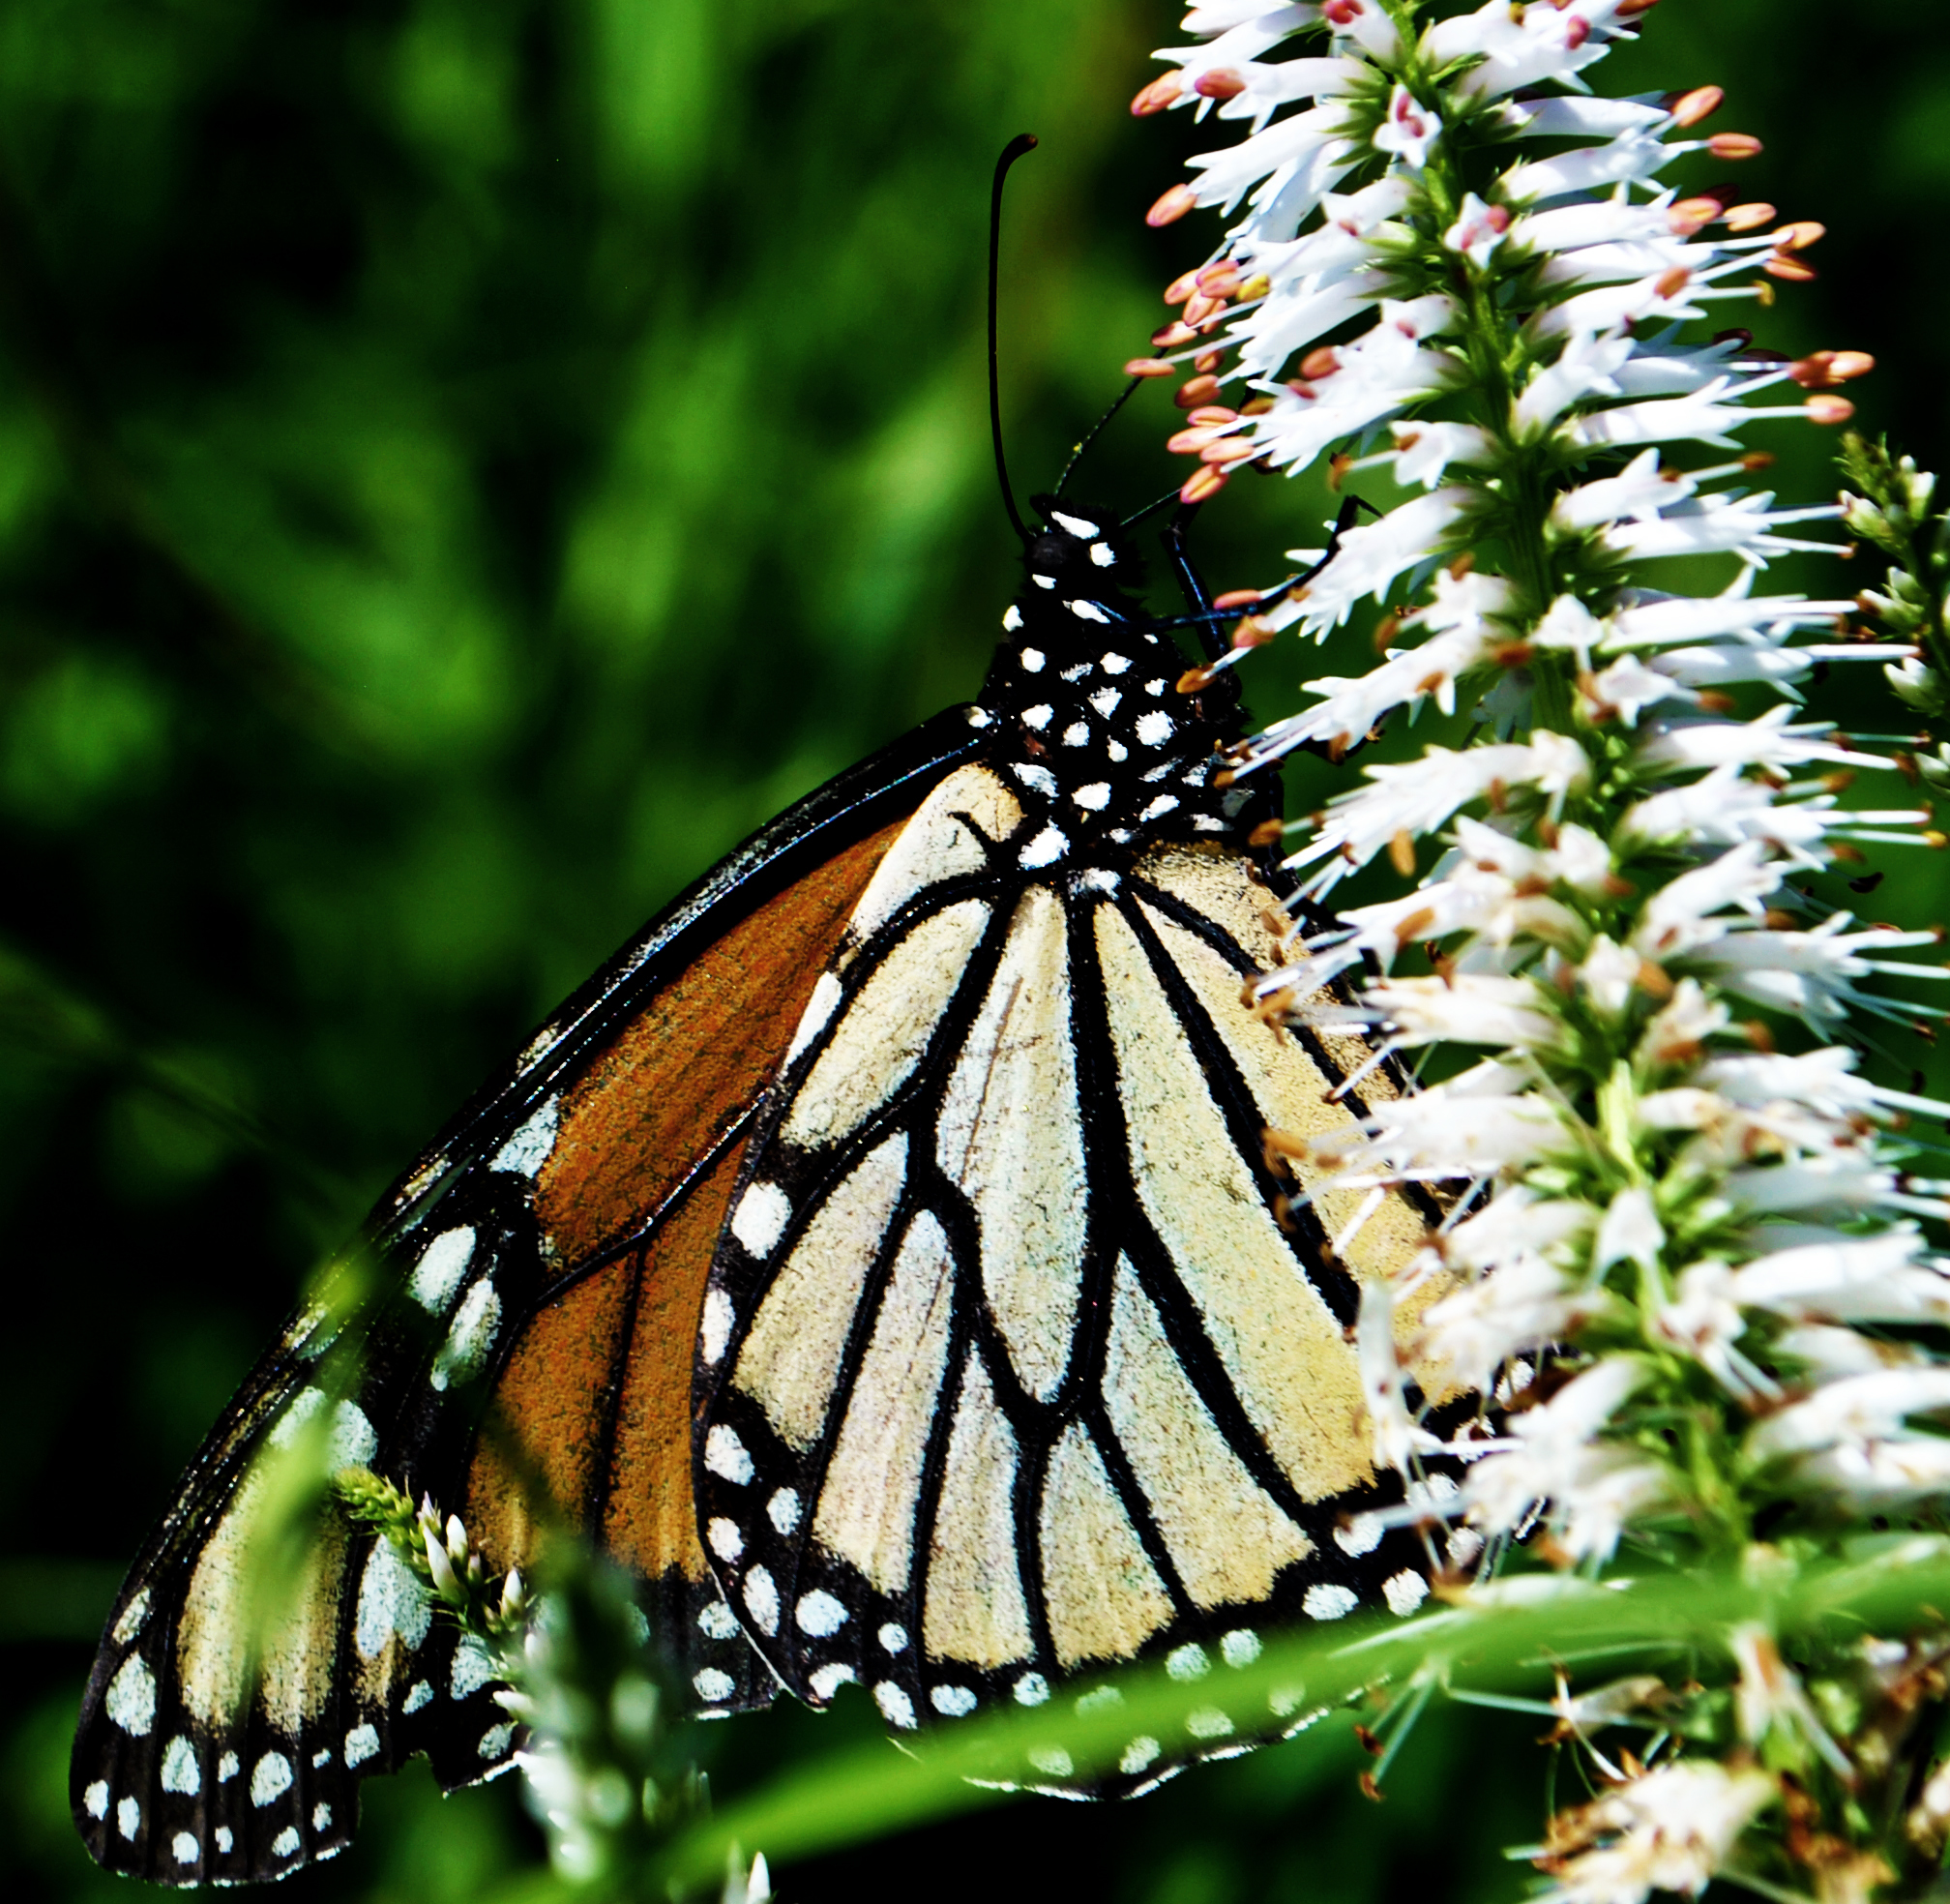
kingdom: Animalia
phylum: Arthropoda
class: Insecta
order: Lepidoptera
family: Nymphalidae
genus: Danaus
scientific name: Danaus plexippus
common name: Monarch
